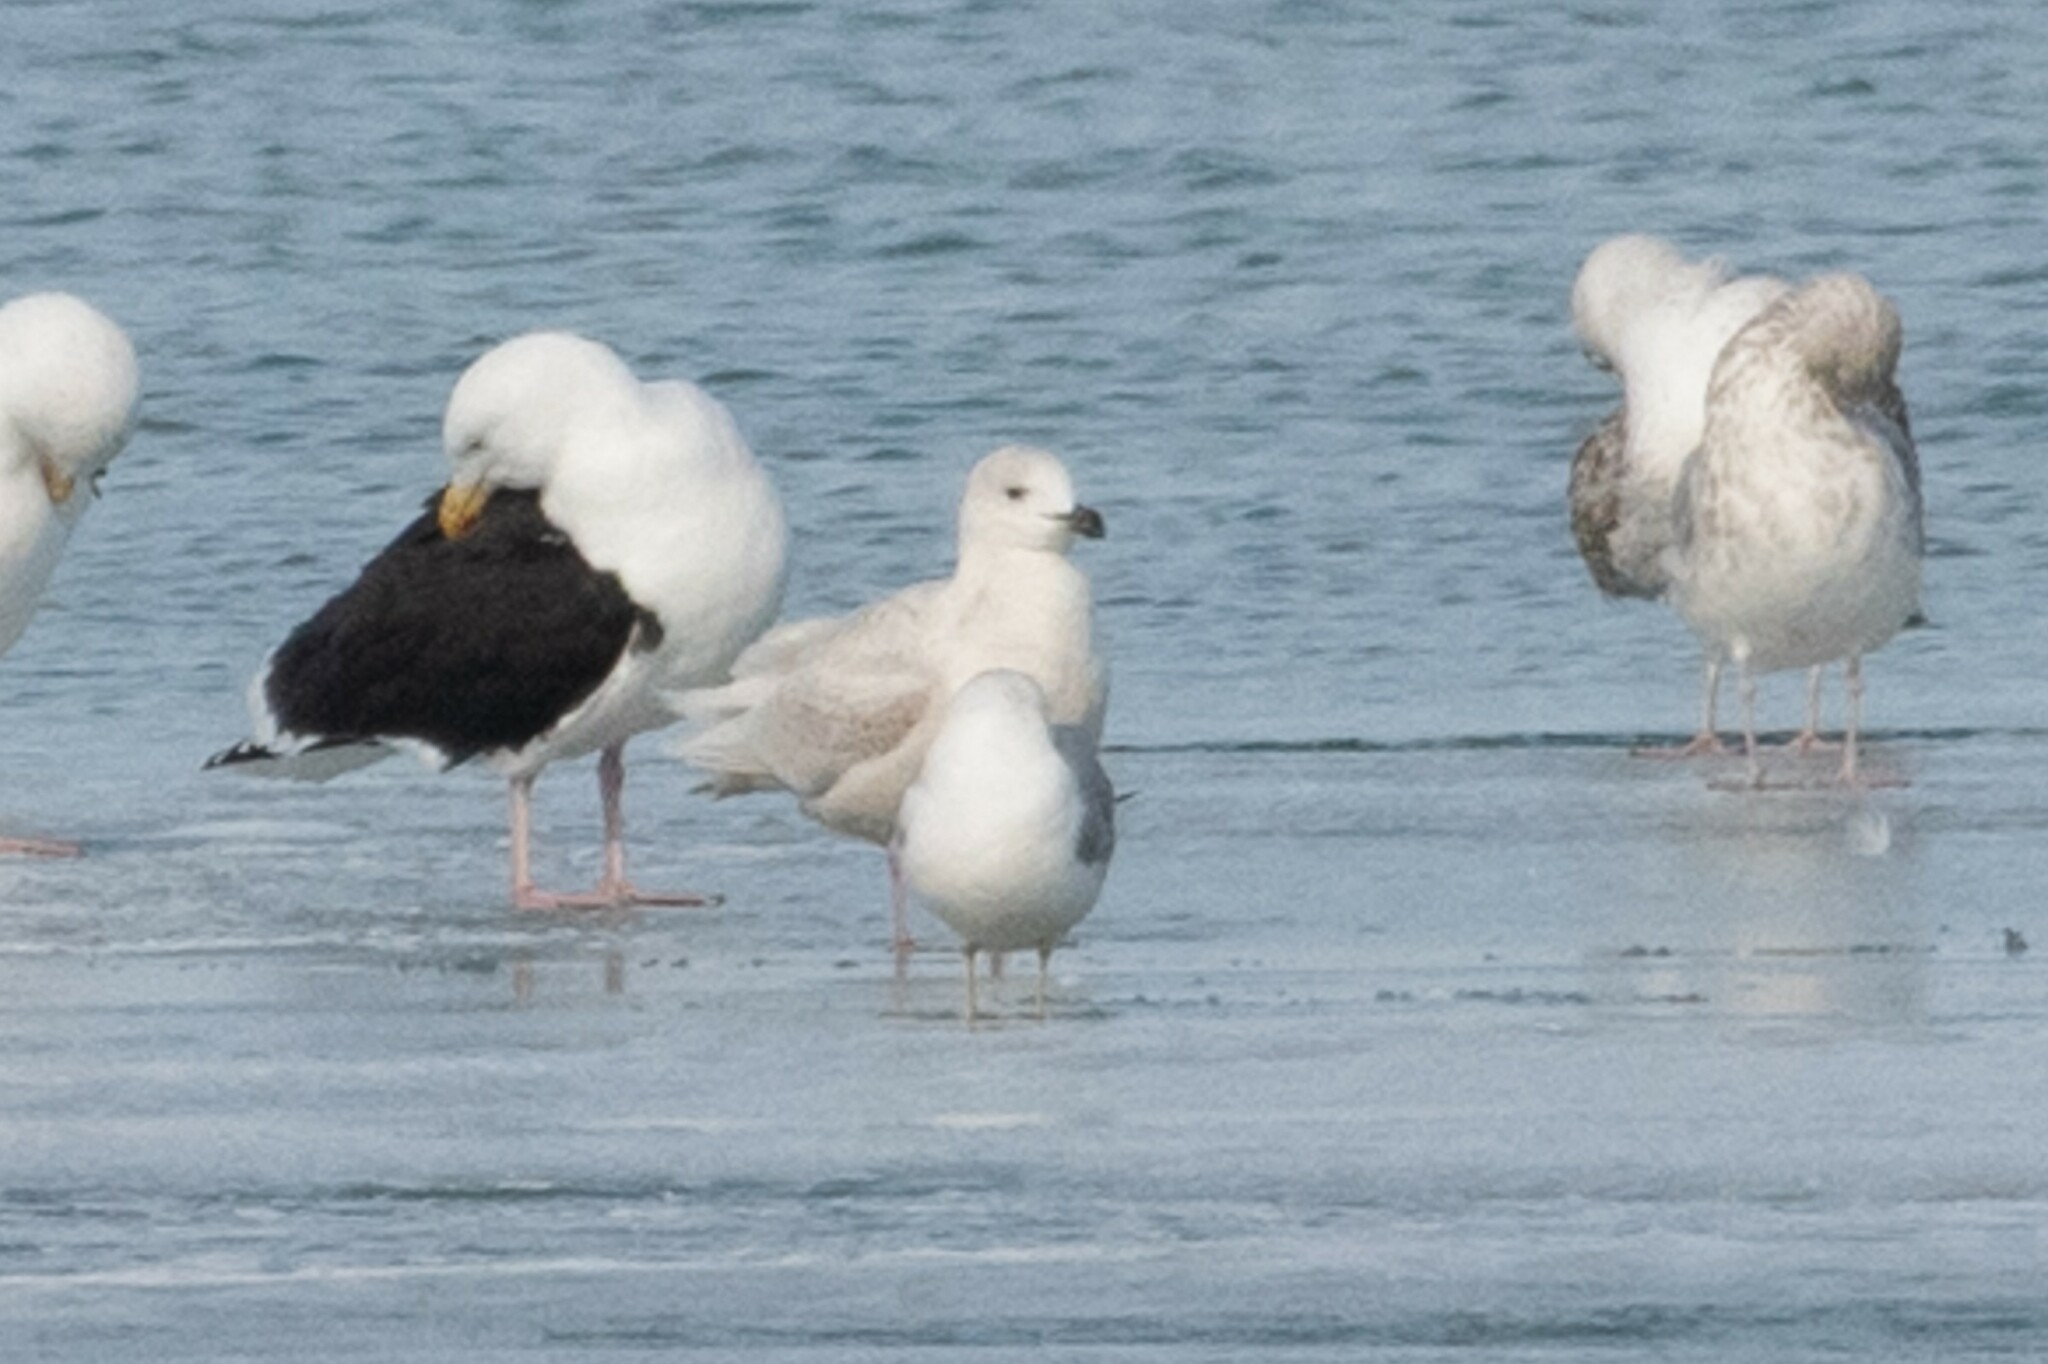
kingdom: Animalia
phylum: Chordata
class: Aves
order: Charadriiformes
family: Laridae
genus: Larus
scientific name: Larus glaucoides
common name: Iceland gull
